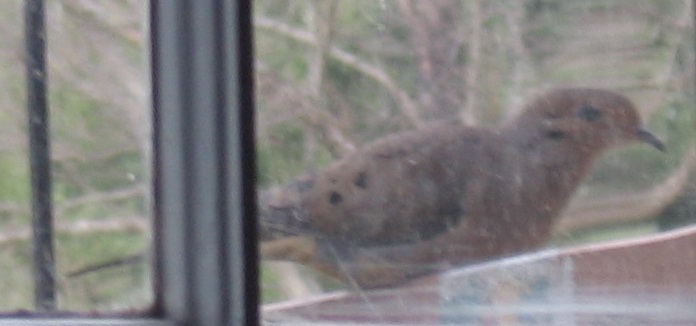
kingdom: Animalia
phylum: Chordata
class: Aves
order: Columbiformes
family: Columbidae
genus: Zenaida
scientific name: Zenaida macroura
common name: Mourning dove
